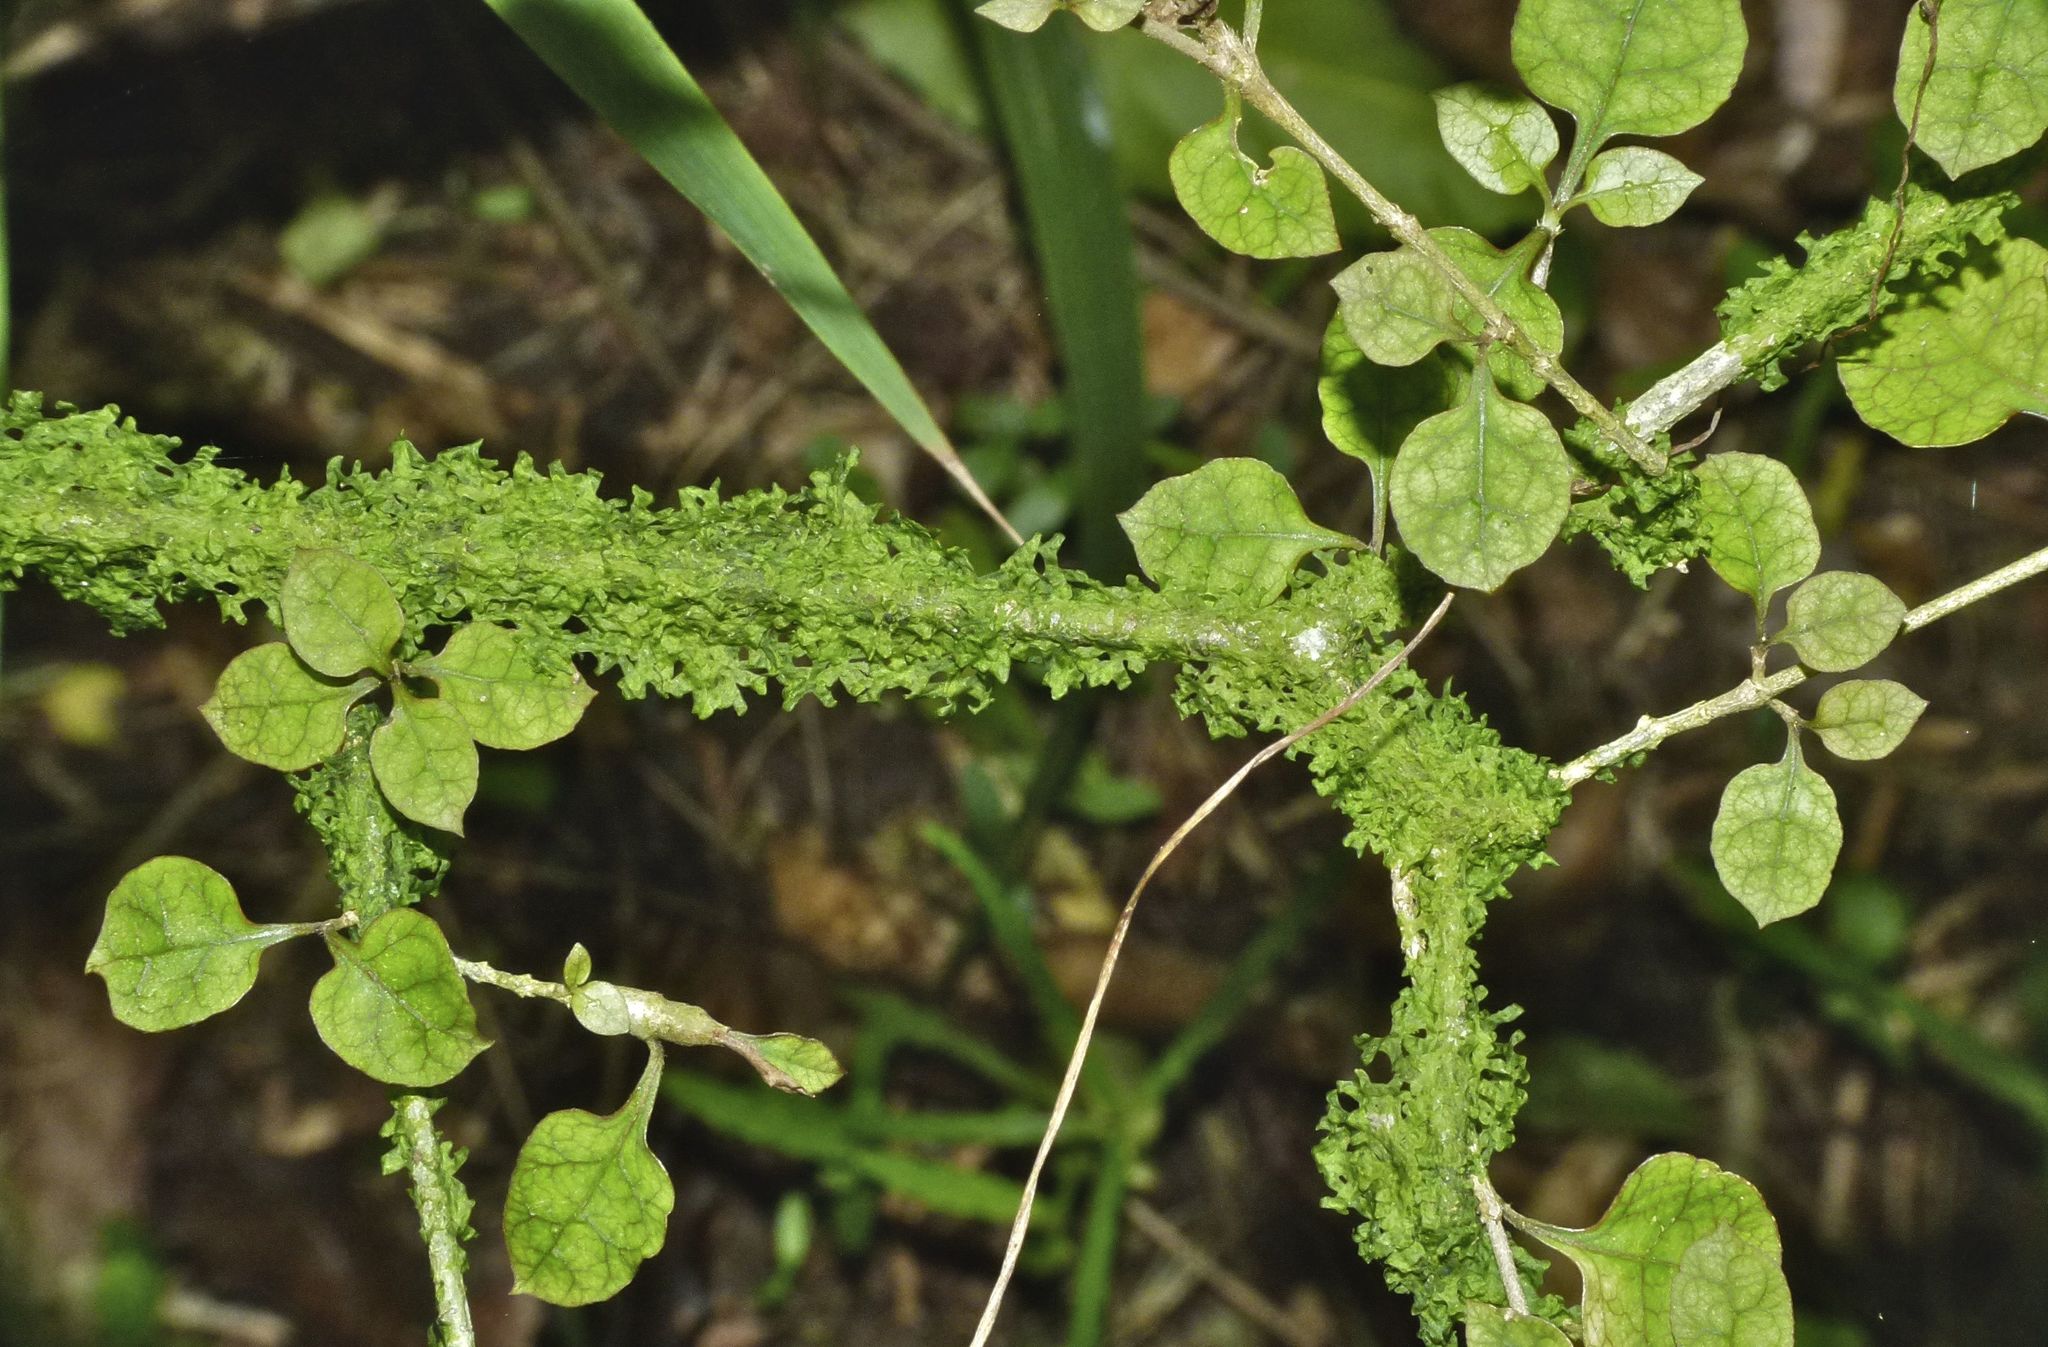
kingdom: Plantae
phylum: Tracheophyta
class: Magnoliopsida
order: Gentianales
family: Rubiaceae
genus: Coprosma
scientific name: Coprosma areolata
